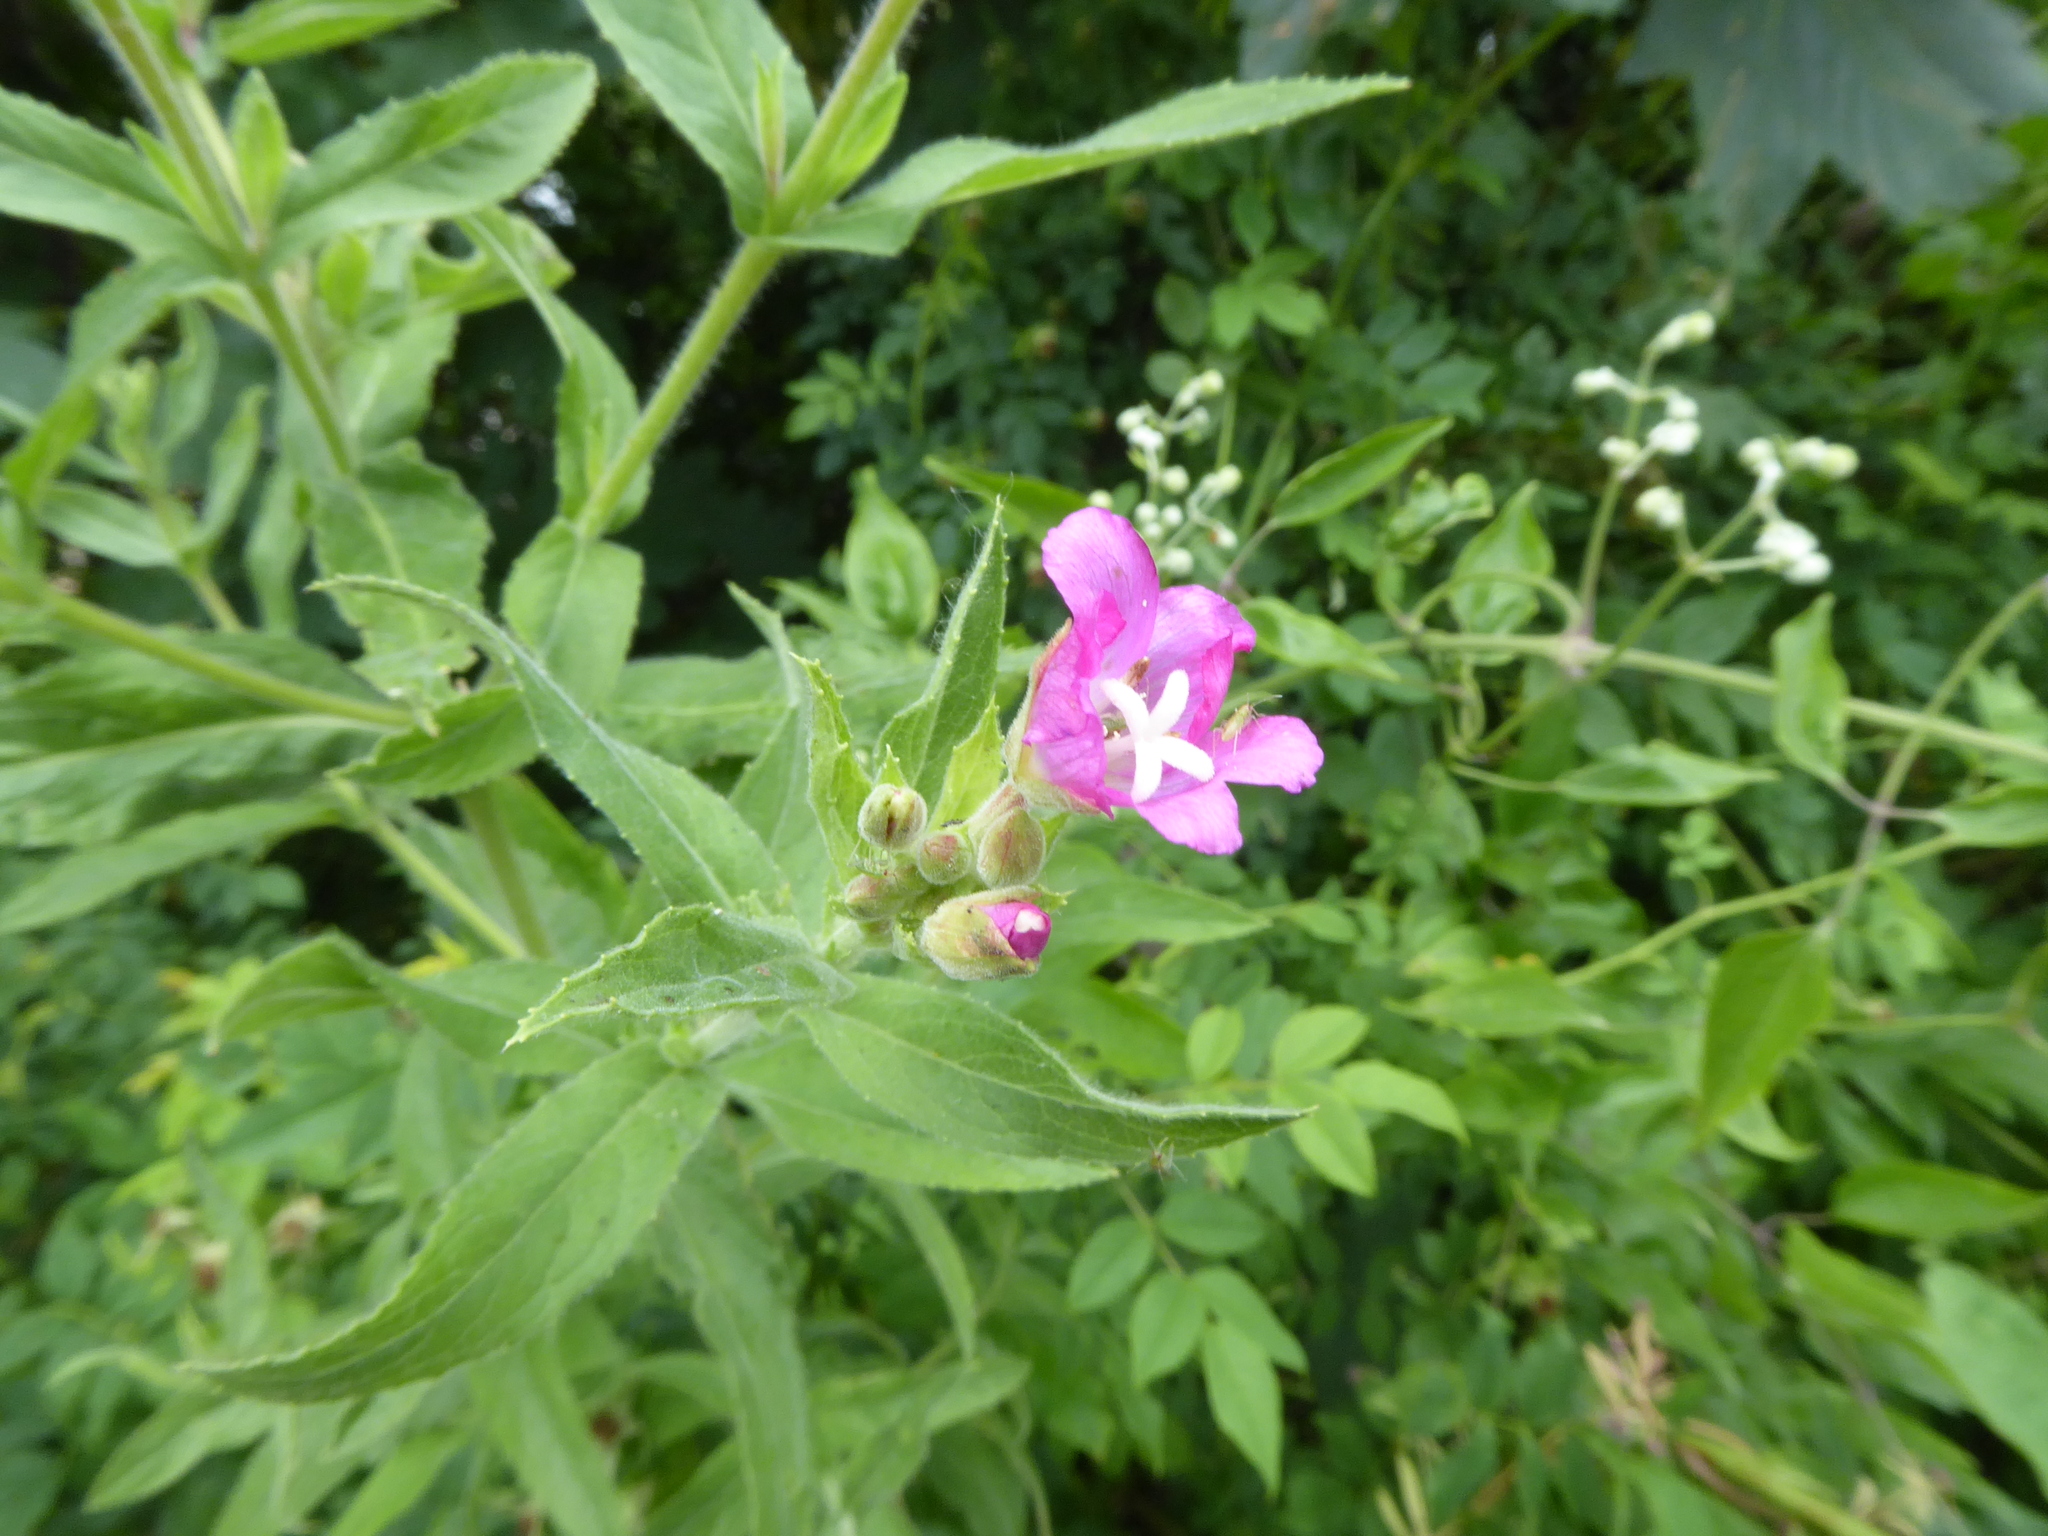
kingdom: Plantae
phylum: Tracheophyta
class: Magnoliopsida
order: Myrtales
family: Onagraceae
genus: Epilobium
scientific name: Epilobium hirsutum
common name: Great willowherb
